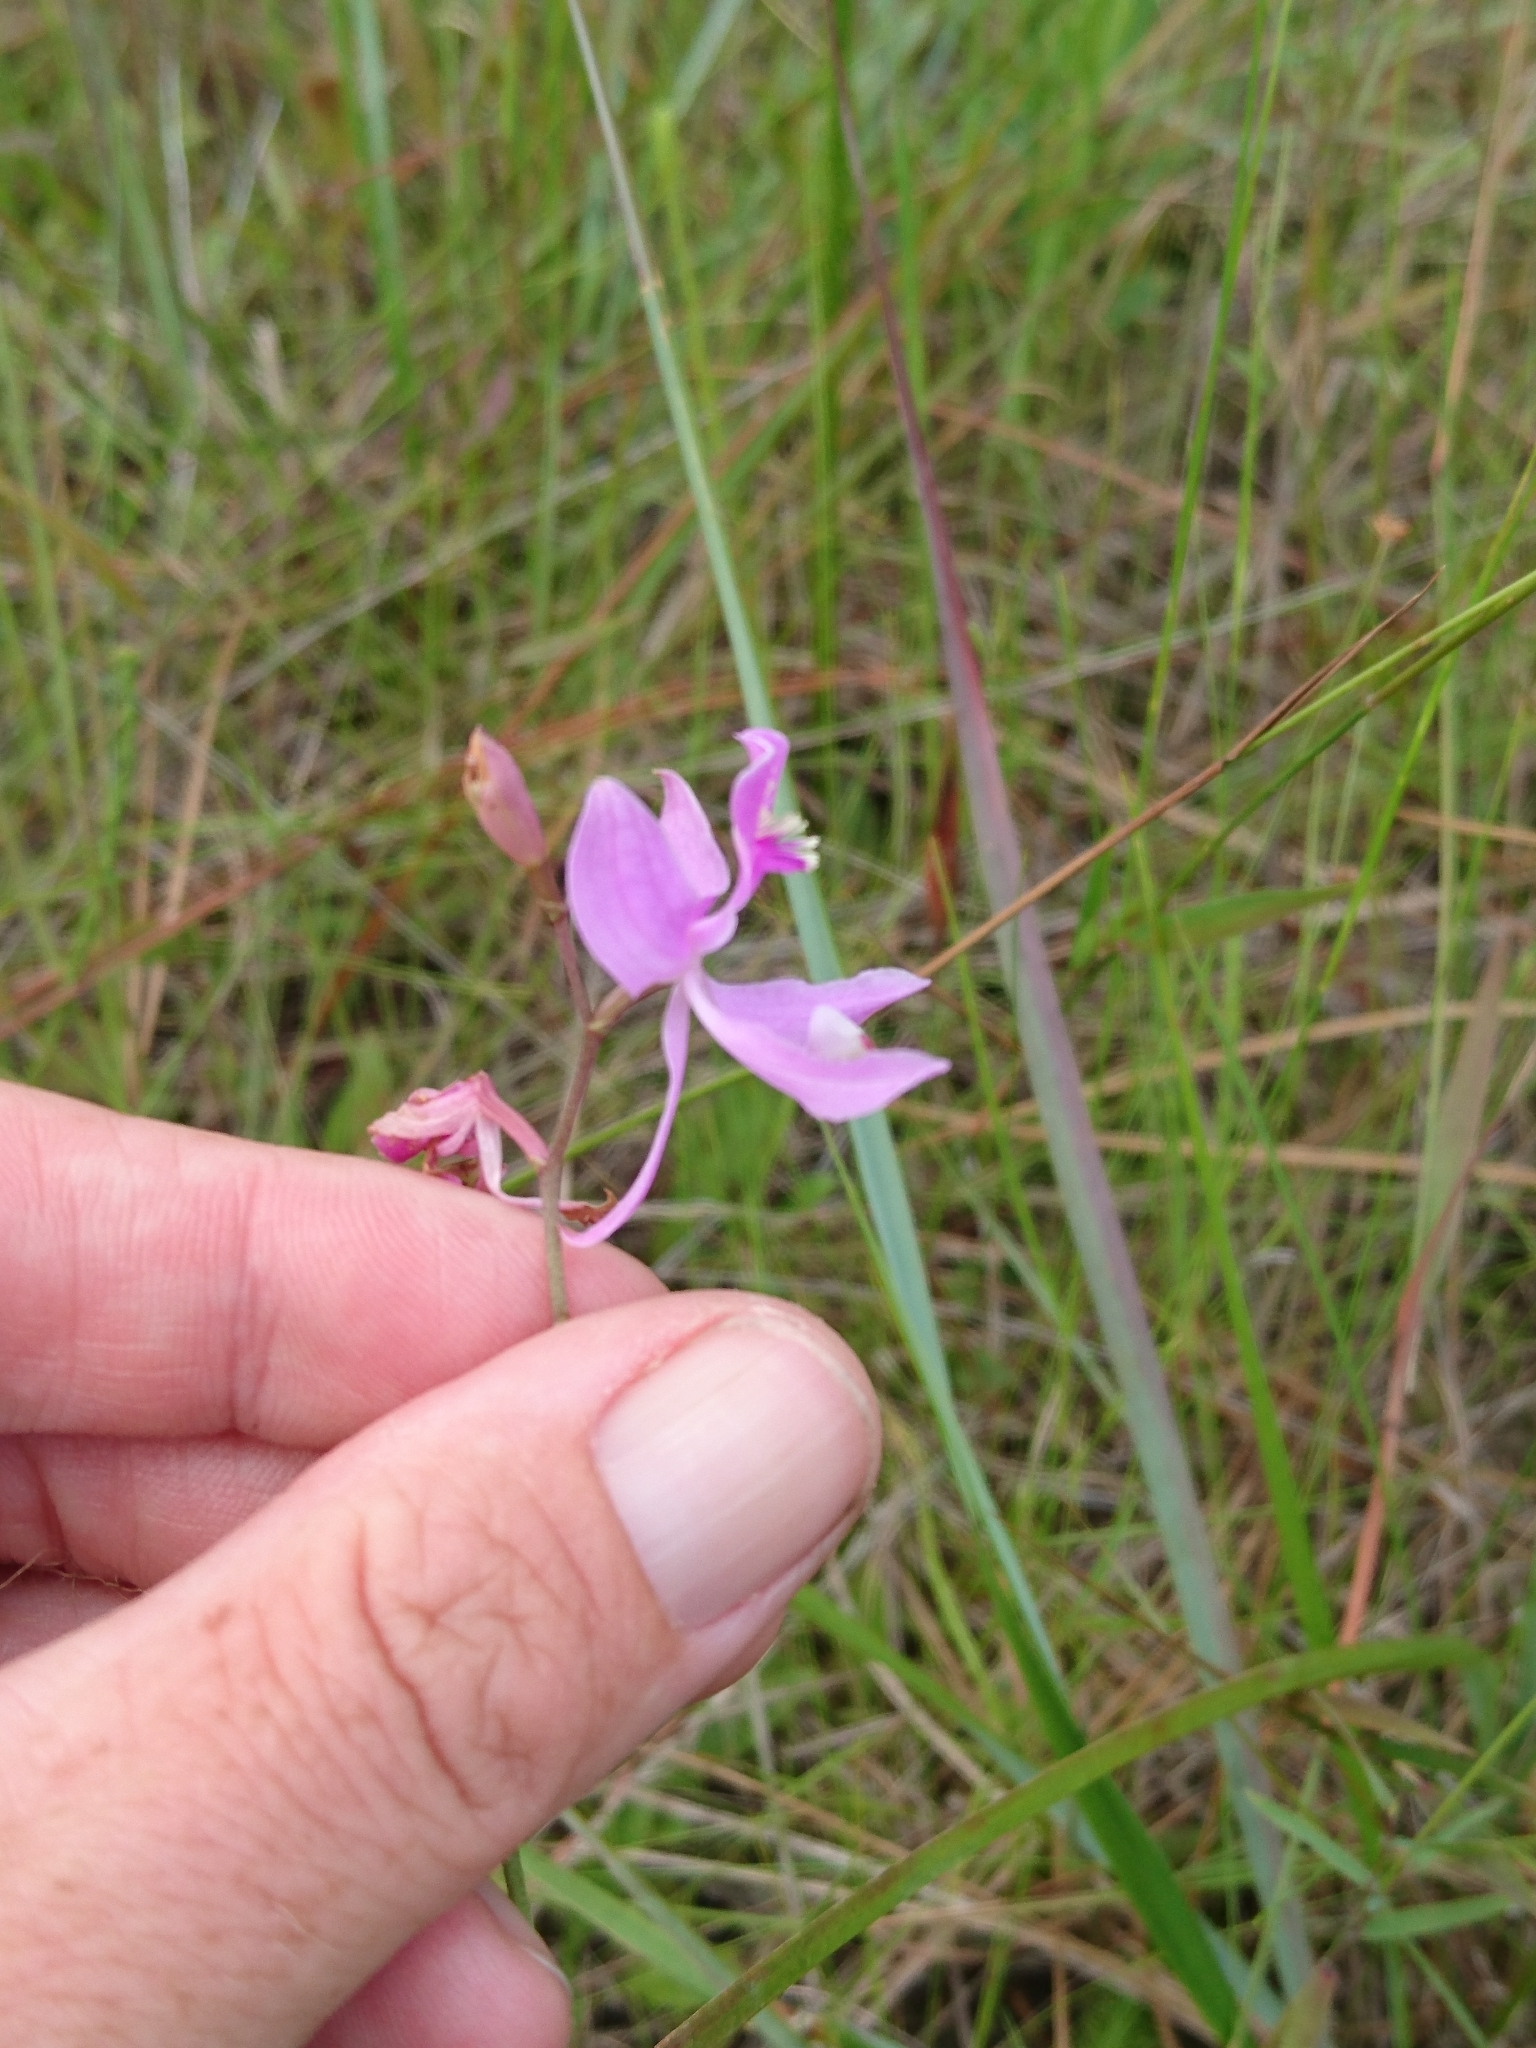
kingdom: Plantae
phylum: Tracheophyta
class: Liliopsida
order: Asparagales
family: Orchidaceae
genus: Calopogon
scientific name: Calopogon pallidus
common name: Pale grasspink
